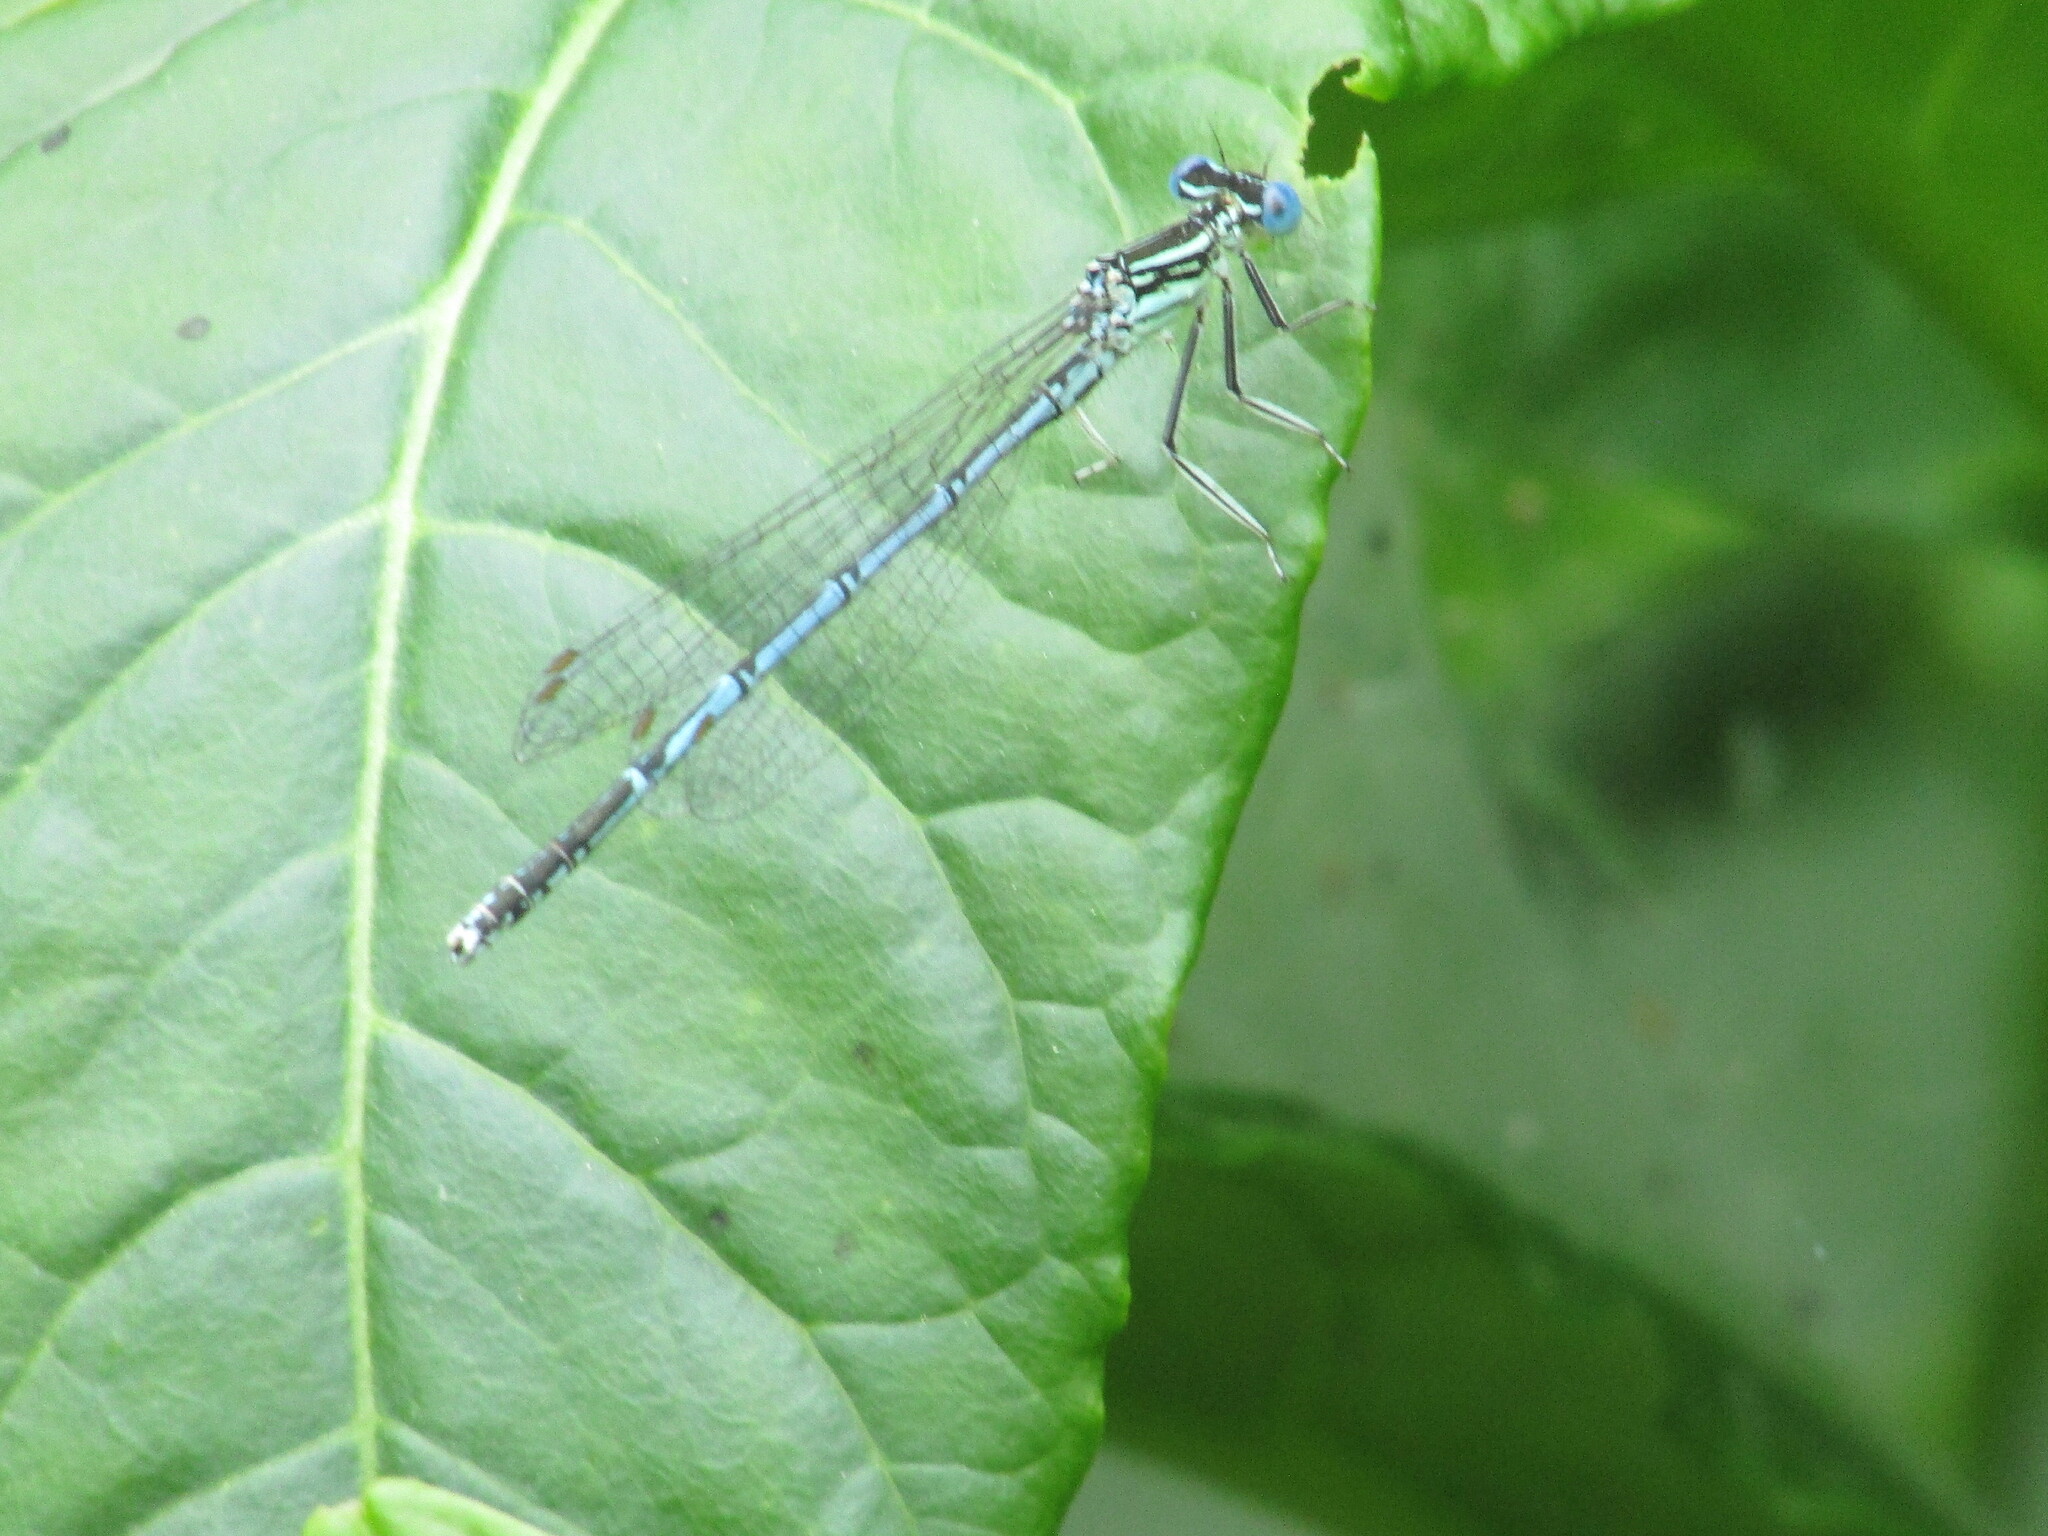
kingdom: Animalia
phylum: Arthropoda
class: Insecta
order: Odonata
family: Platycnemididae
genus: Platycnemis
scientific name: Platycnemis pennipes
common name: White-legged damselfly
